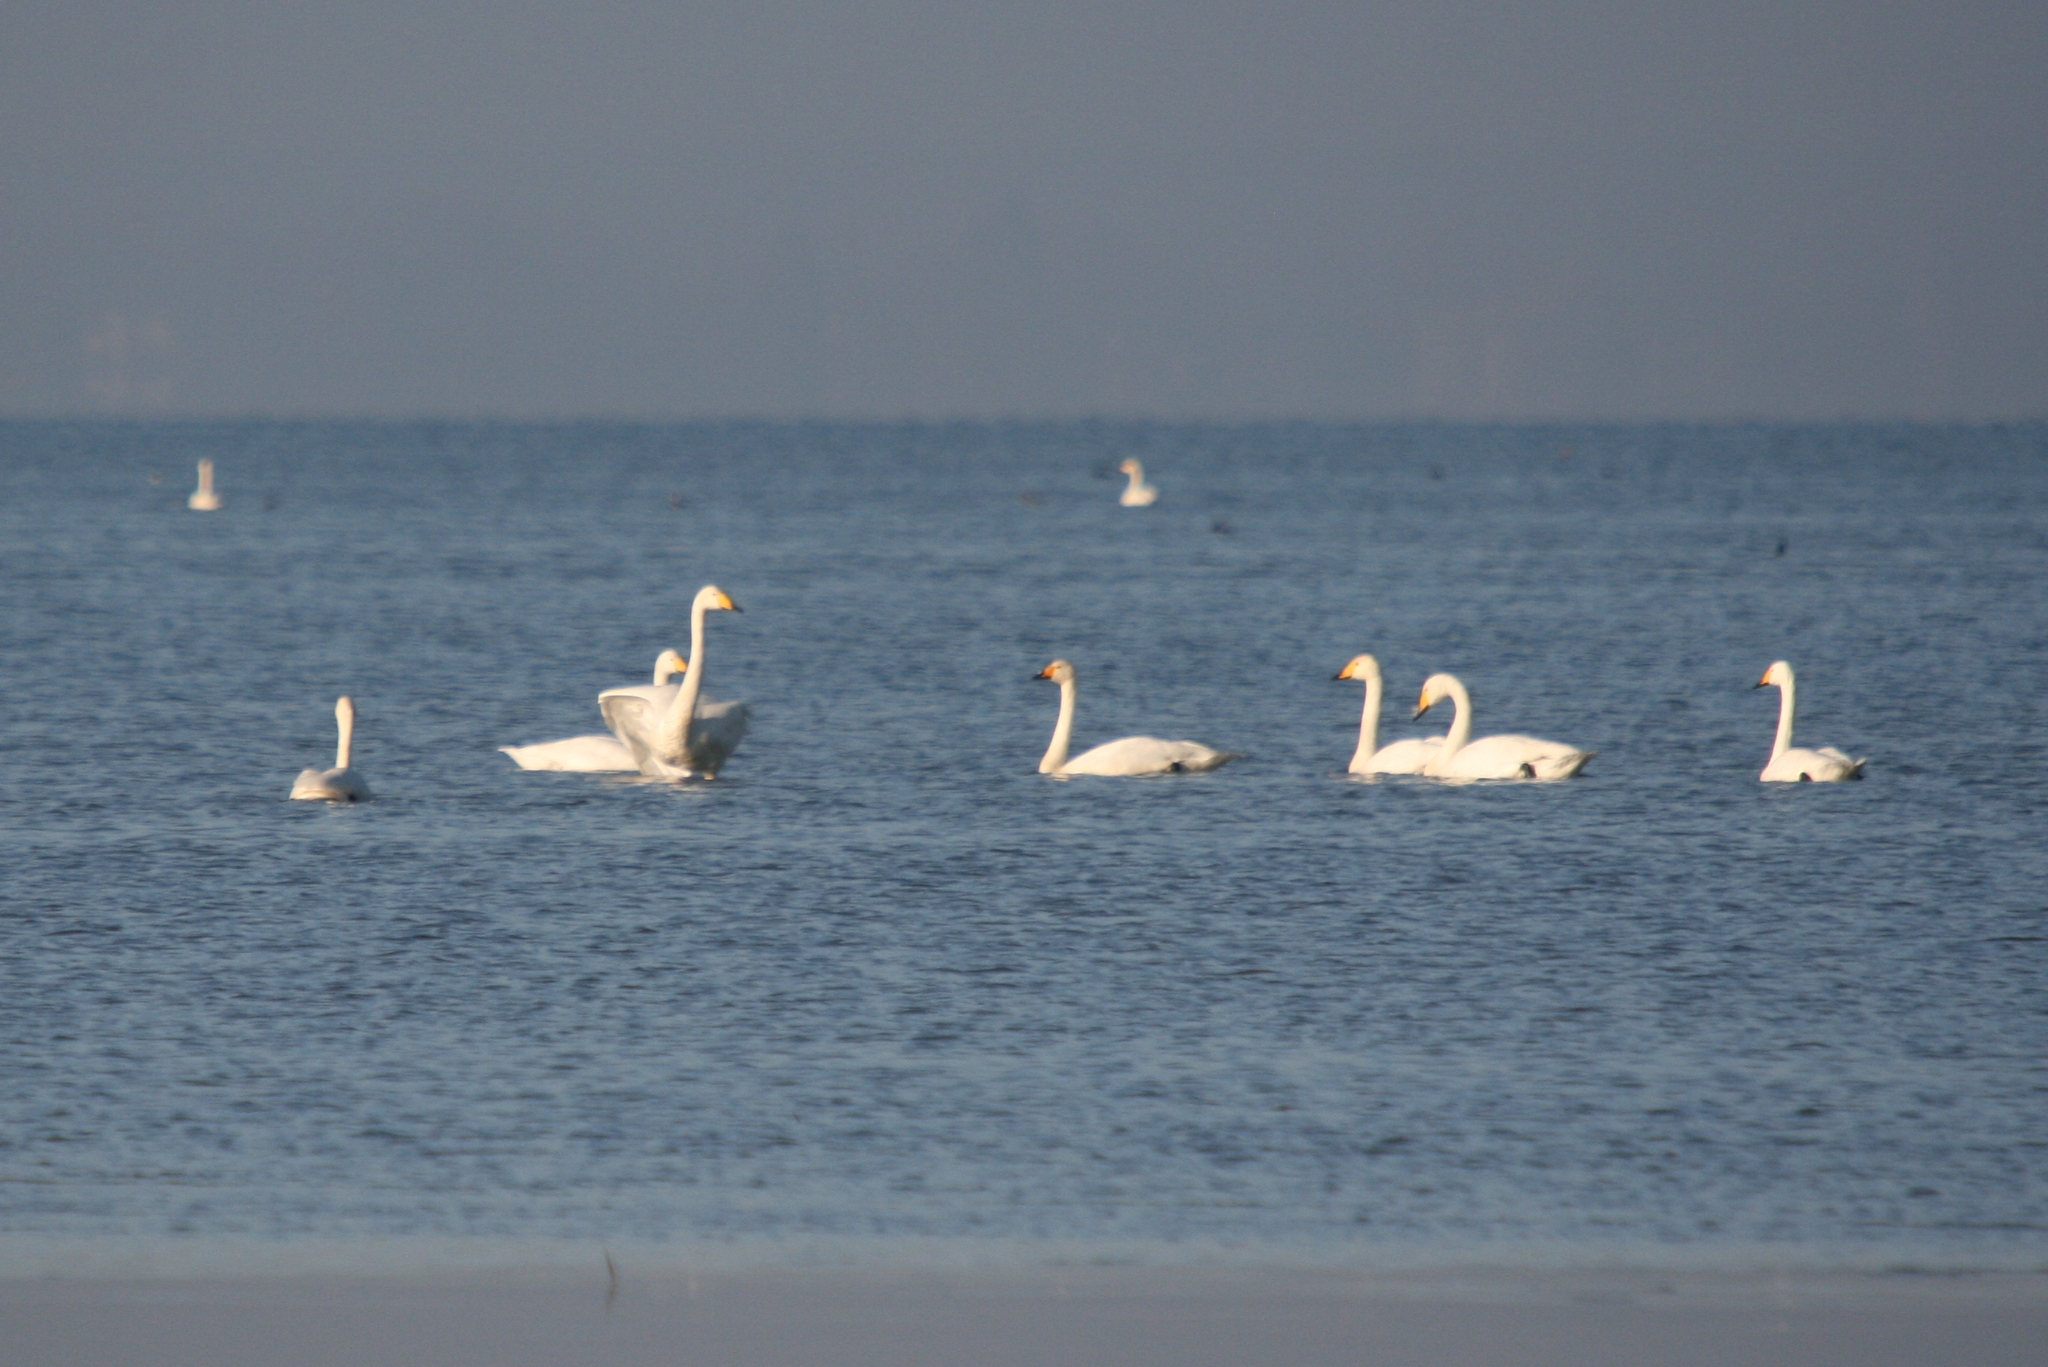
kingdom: Animalia
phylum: Chordata
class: Aves
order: Anseriformes
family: Anatidae
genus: Cygnus
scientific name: Cygnus cygnus
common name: Whooper swan
